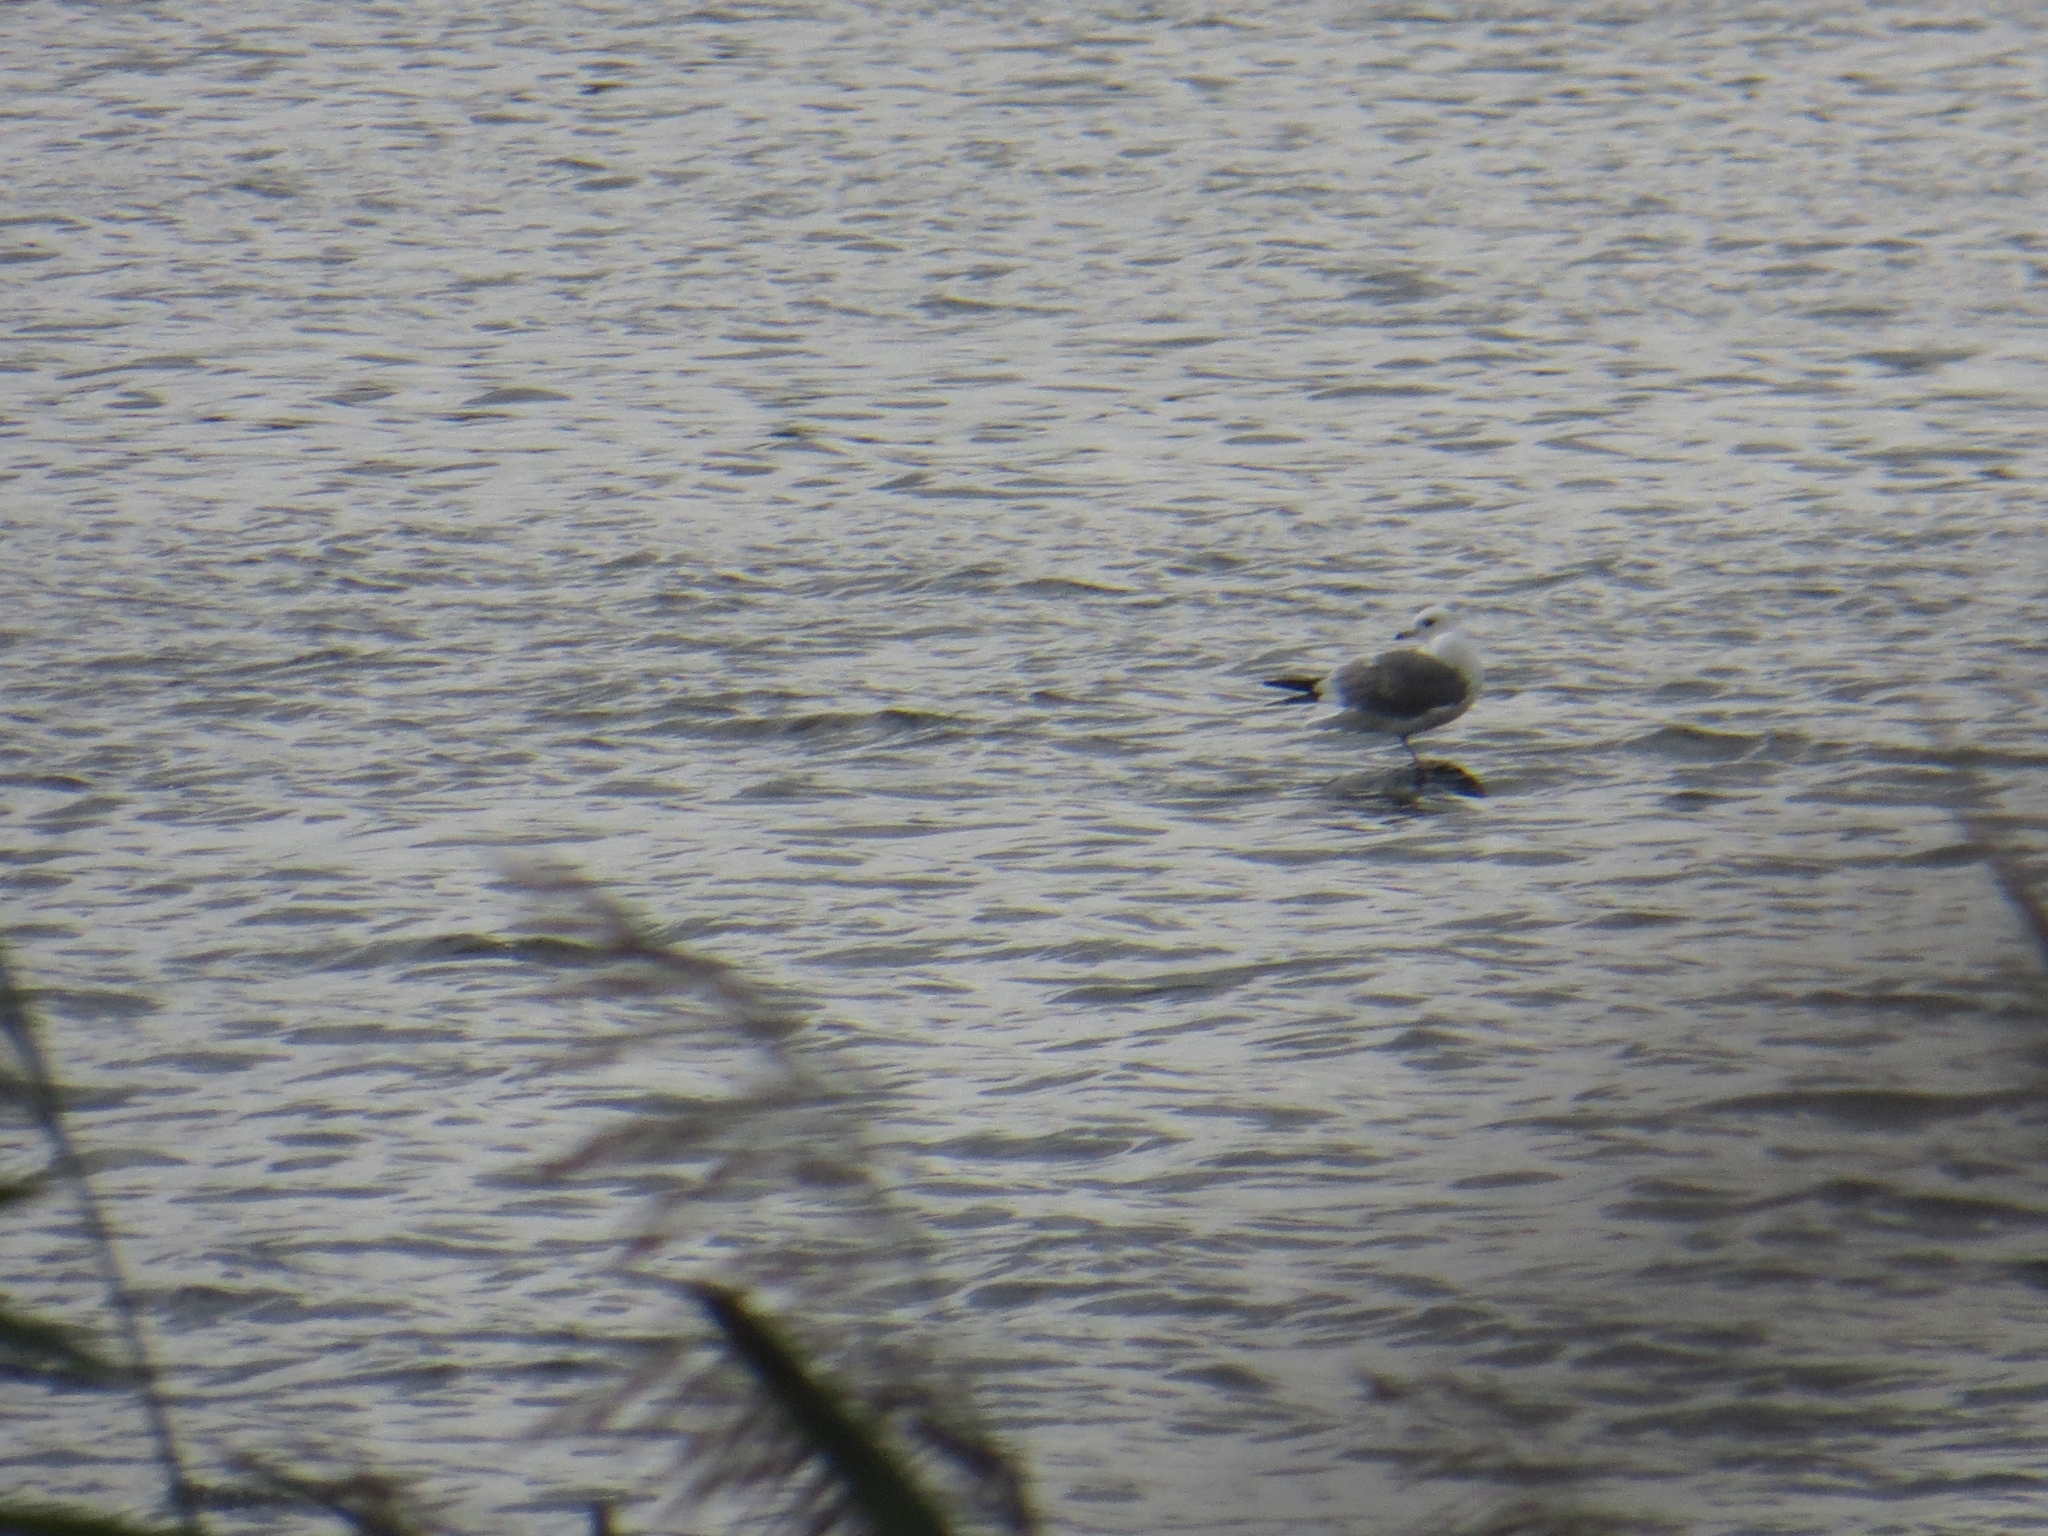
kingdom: Animalia
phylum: Chordata
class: Aves
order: Charadriiformes
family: Laridae
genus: Larus
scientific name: Larus canus
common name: Mew gull
